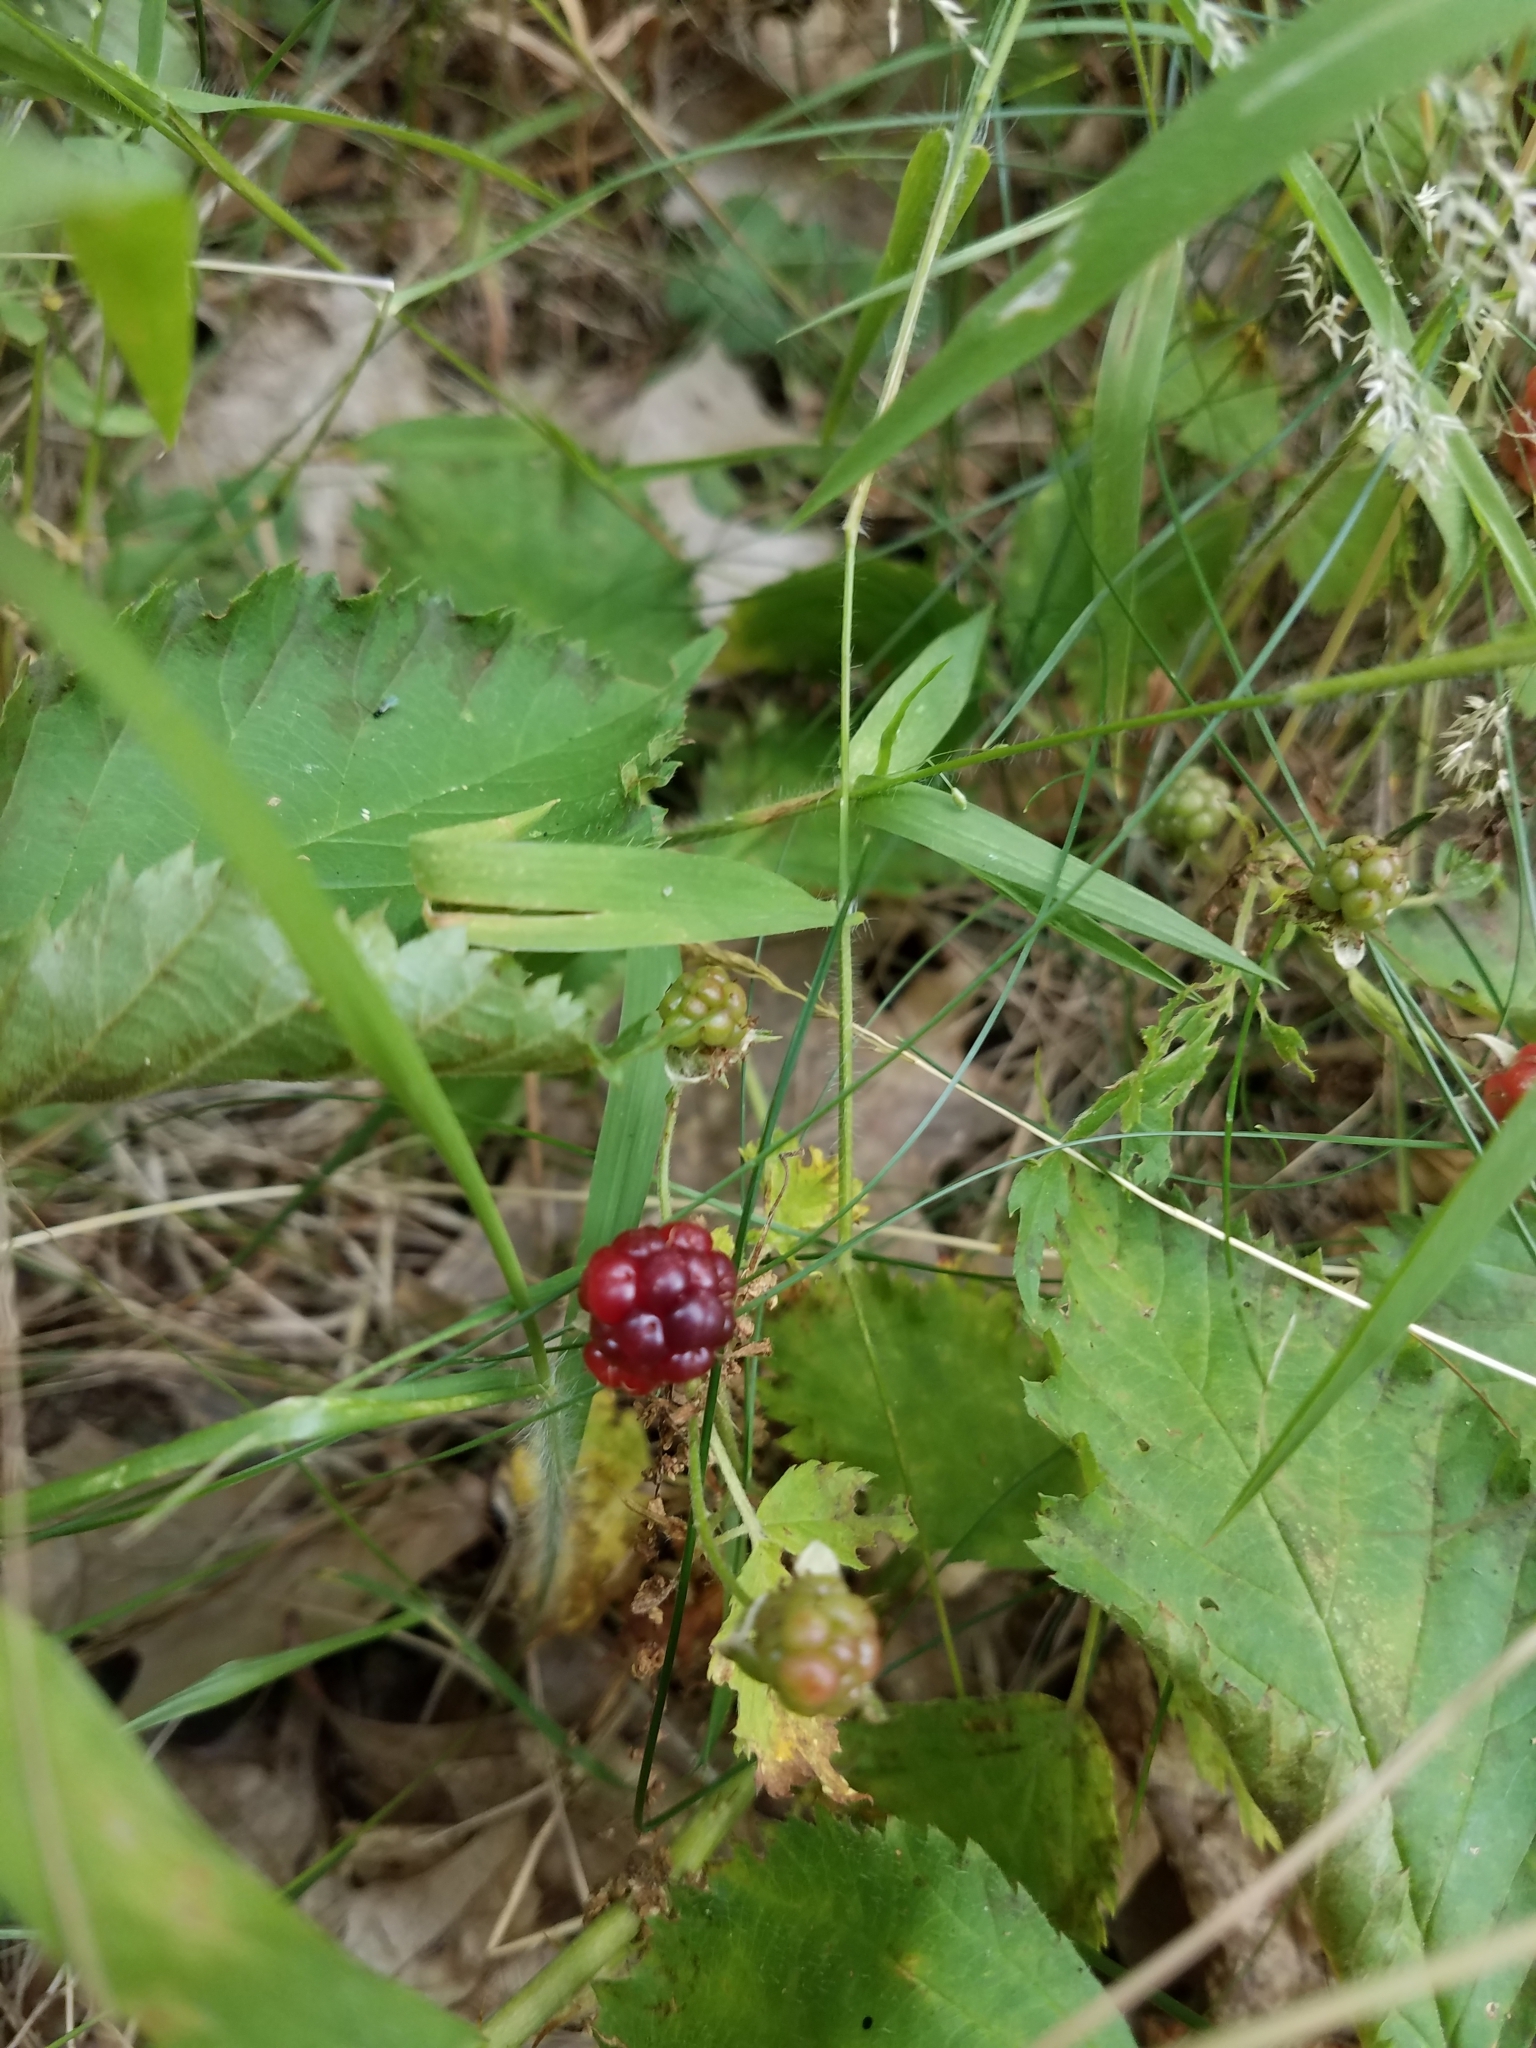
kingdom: Plantae
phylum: Tracheophyta
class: Magnoliopsida
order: Rosales
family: Rosaceae
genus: Rubus
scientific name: Rubus flagellaris
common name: American dewberry
